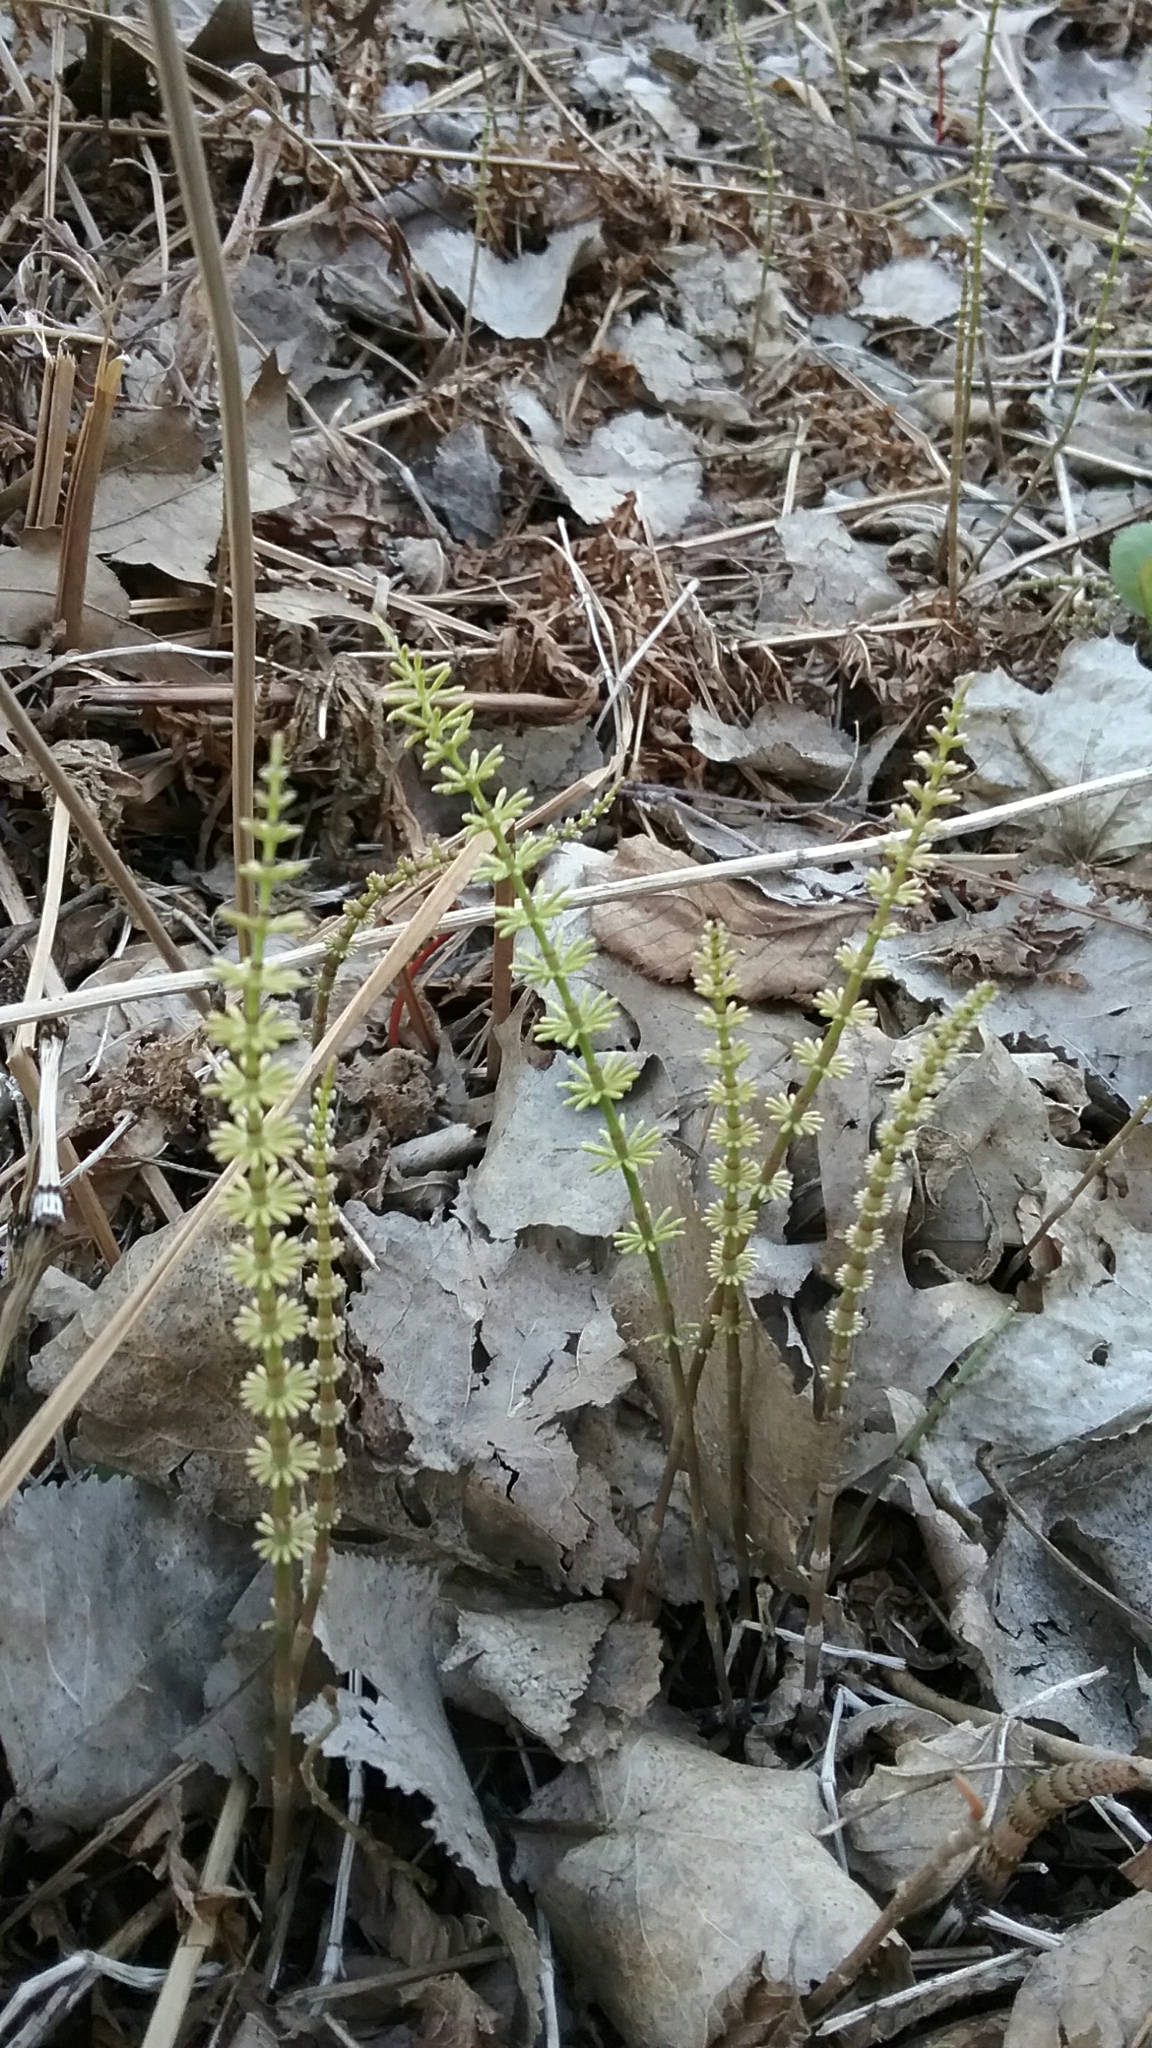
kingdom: Plantae
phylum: Tracheophyta
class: Polypodiopsida
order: Equisetales
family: Equisetaceae
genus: Equisetum
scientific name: Equisetum pratense
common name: Meadow horsetail
